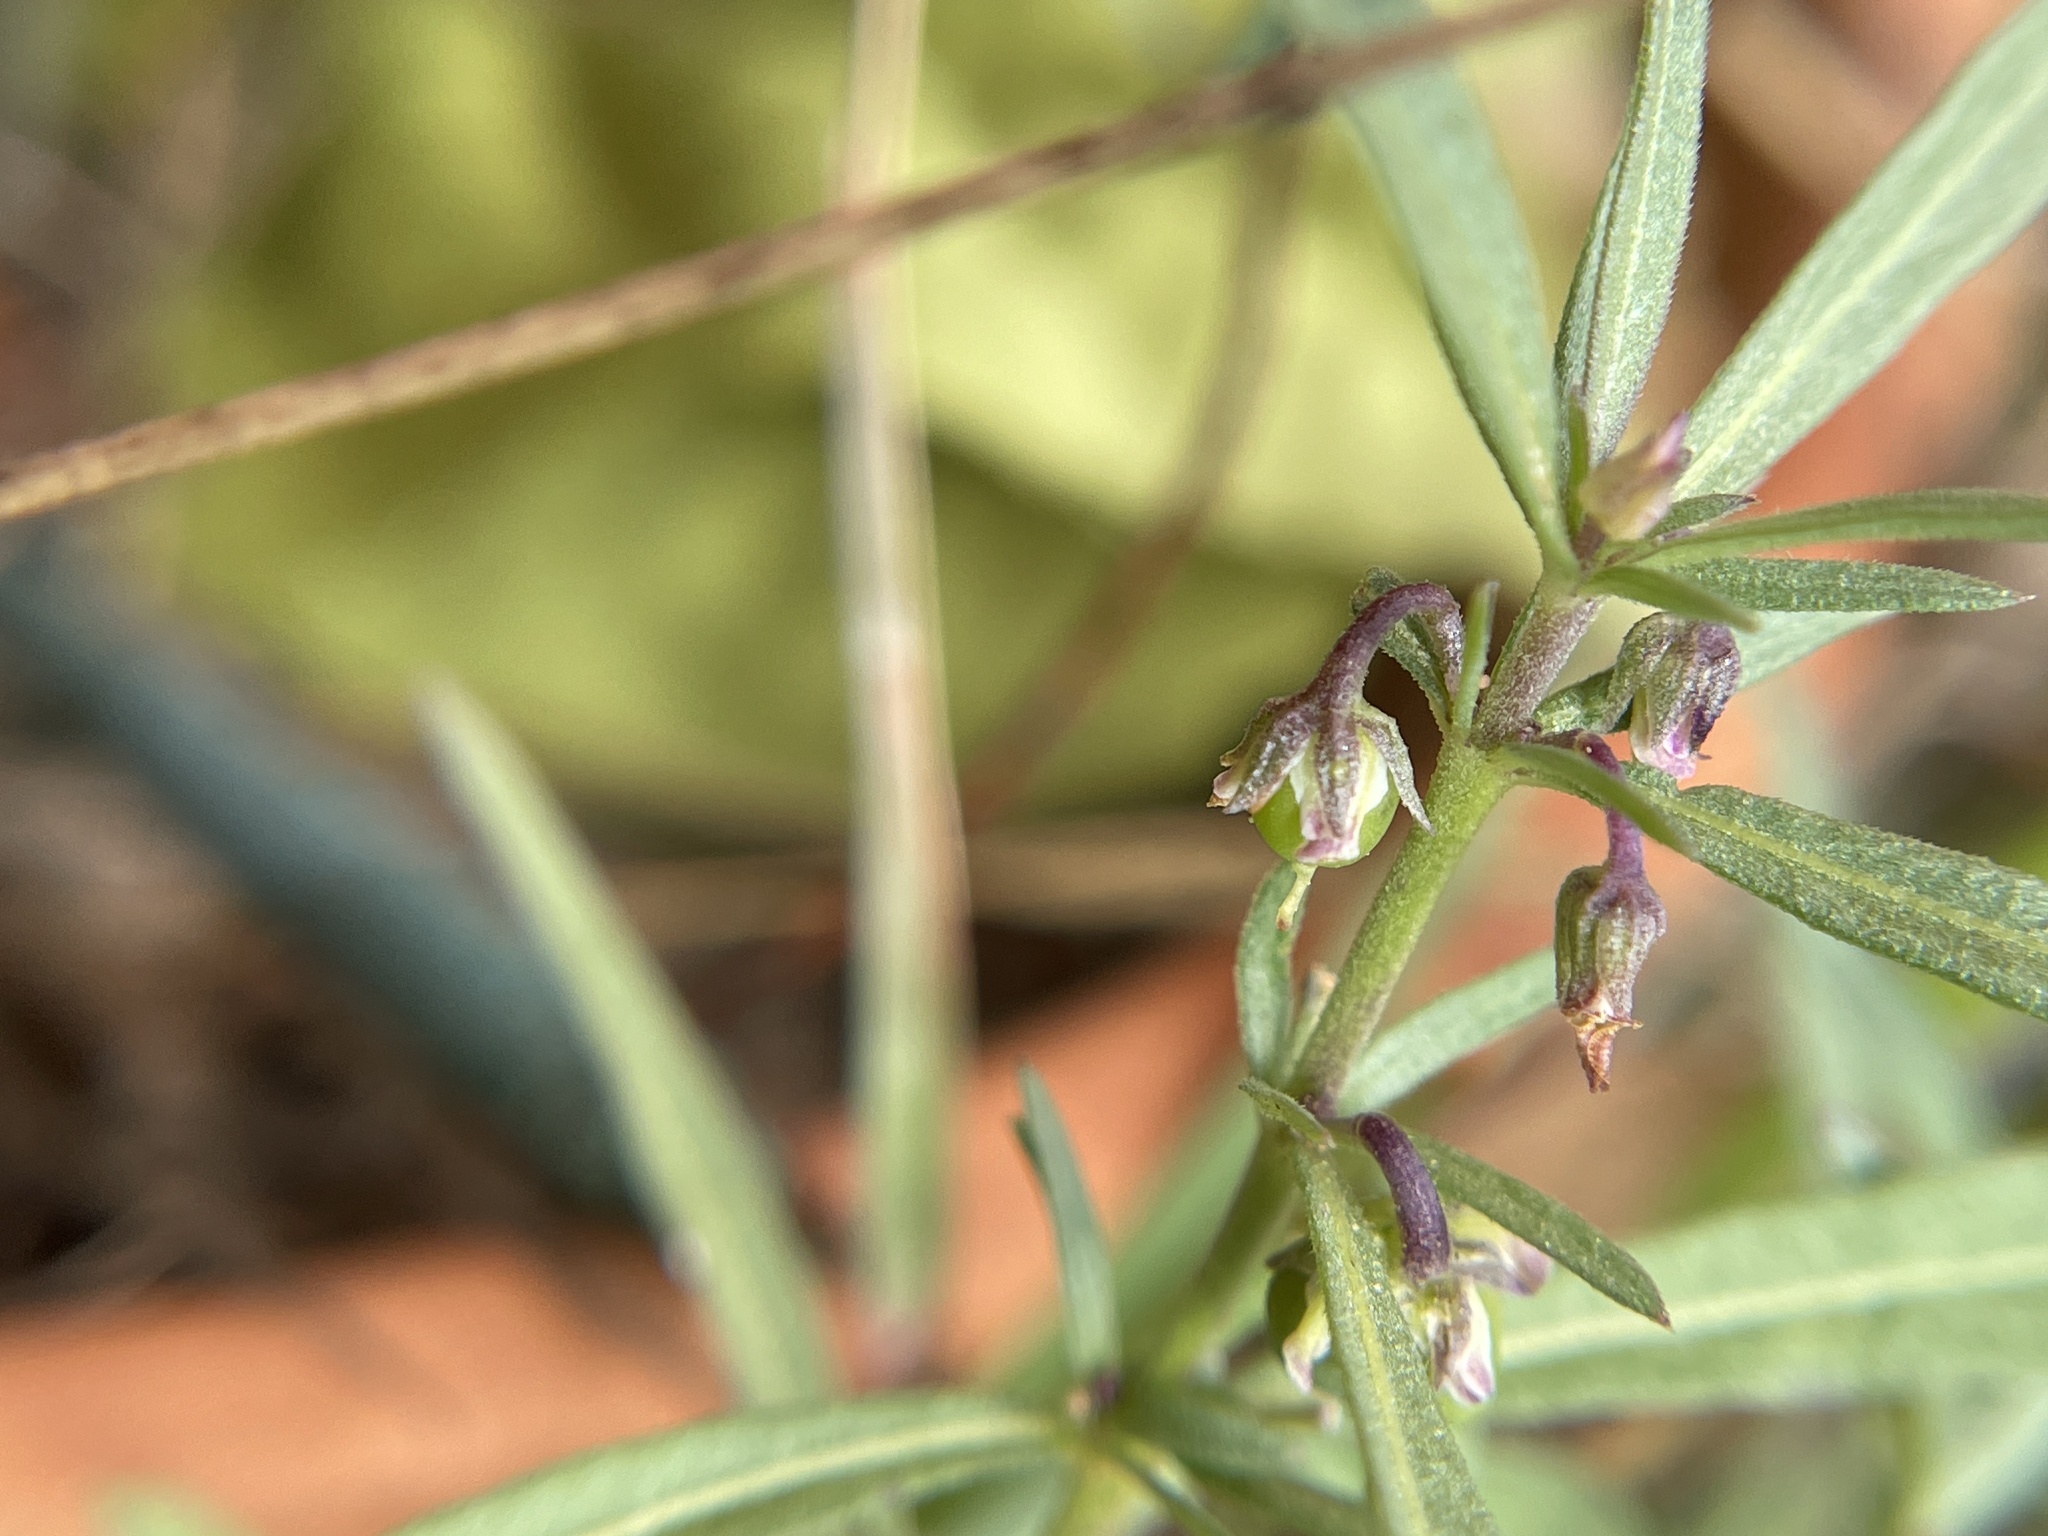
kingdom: Plantae
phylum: Tracheophyta
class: Magnoliopsida
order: Malpighiales
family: Violaceae
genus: Pombalia
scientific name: Pombalia verticillata
